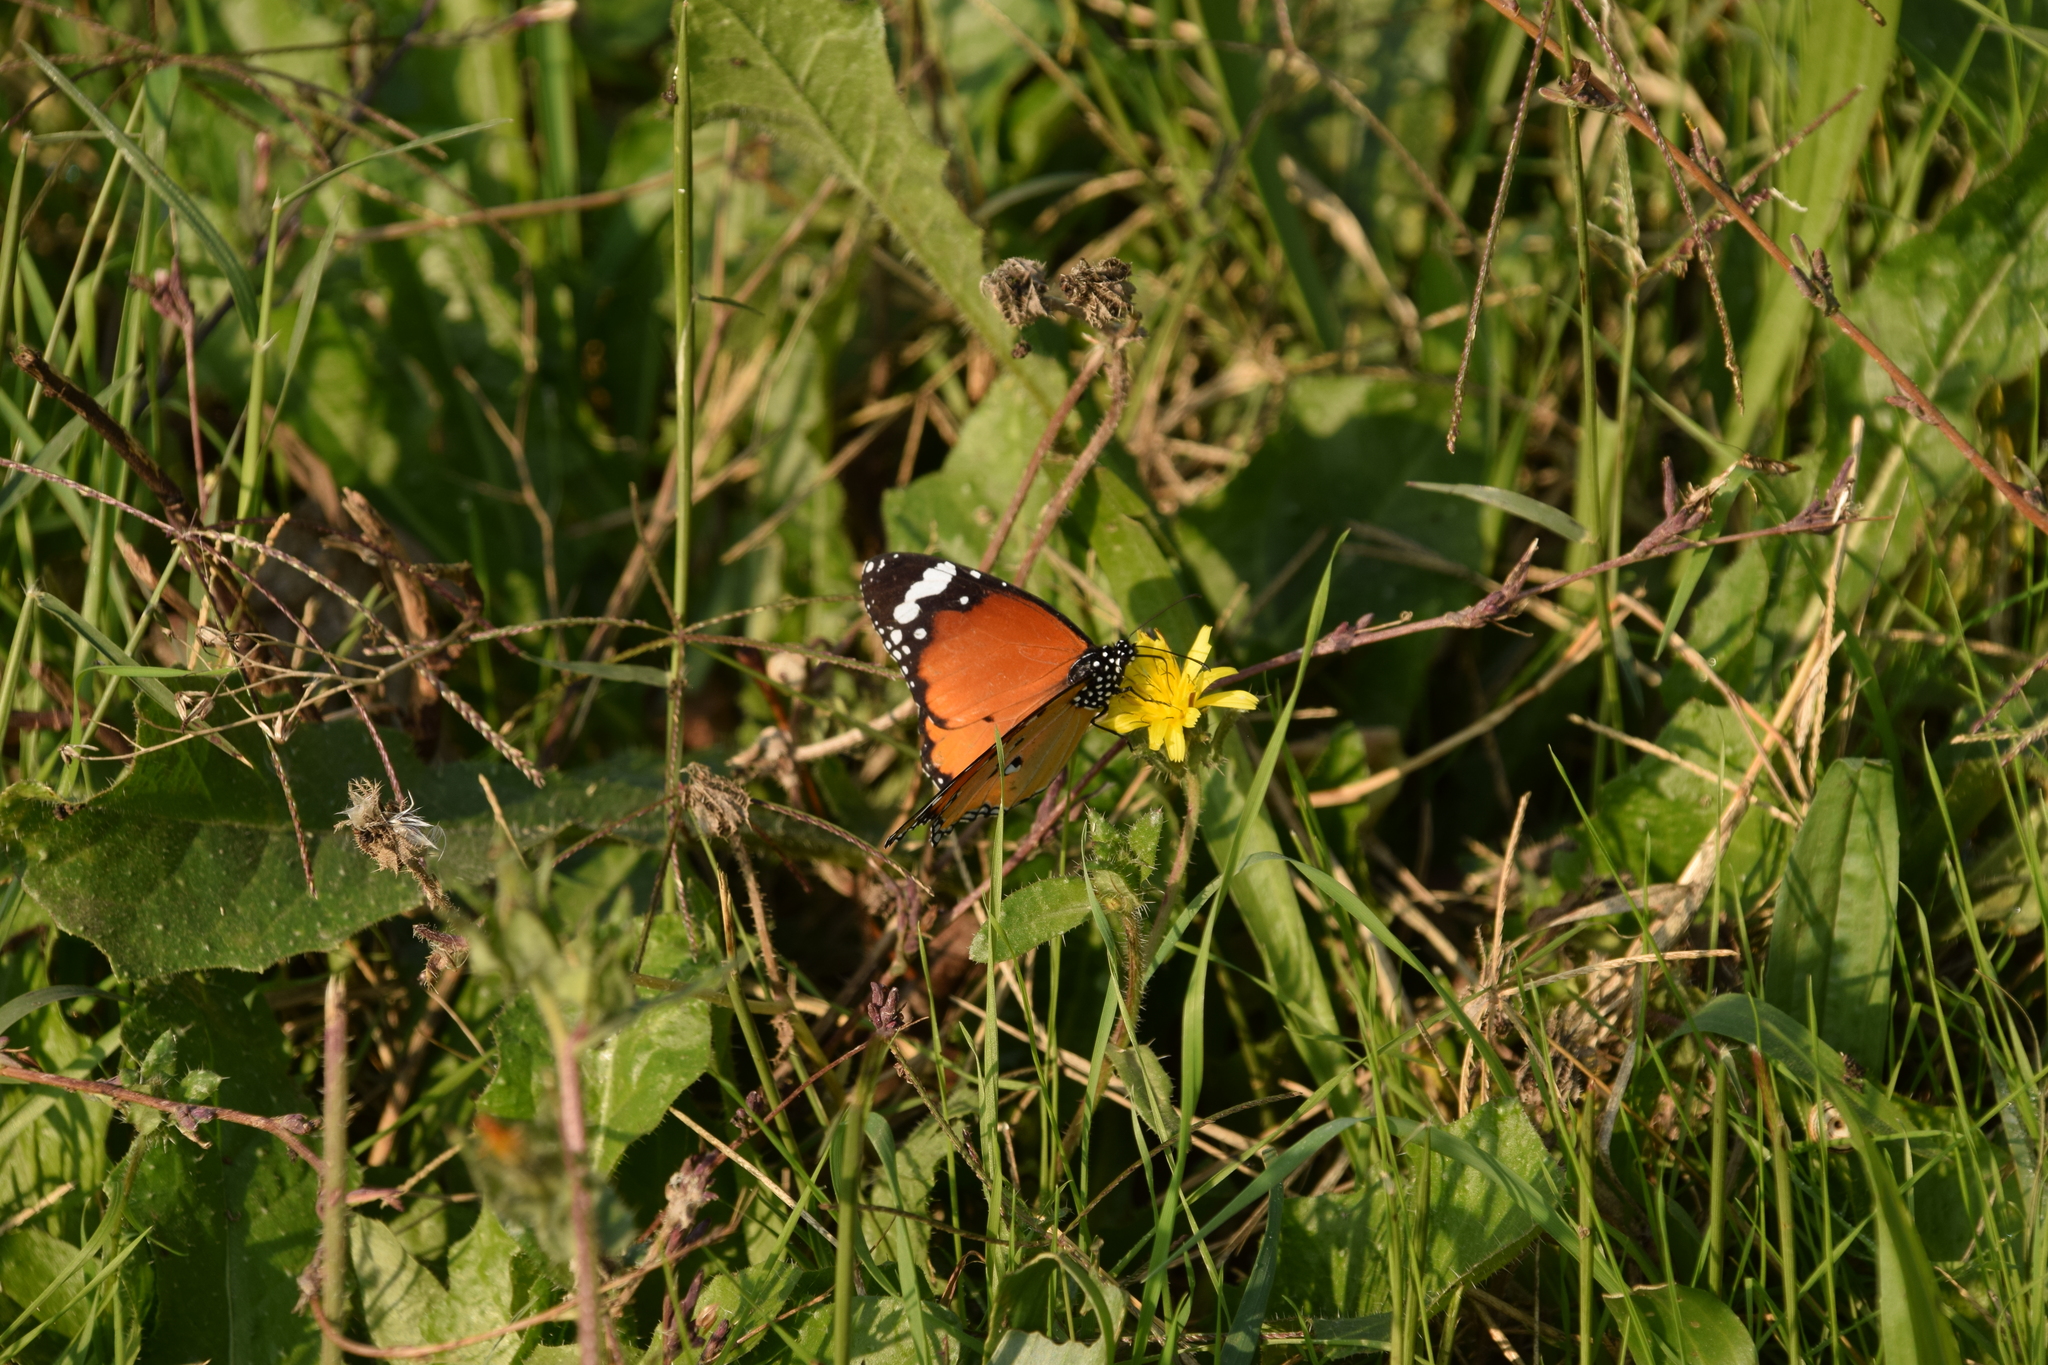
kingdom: Animalia
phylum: Arthropoda
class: Insecta
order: Lepidoptera
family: Nymphalidae
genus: Danaus
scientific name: Danaus chrysippus
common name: Plain tiger
